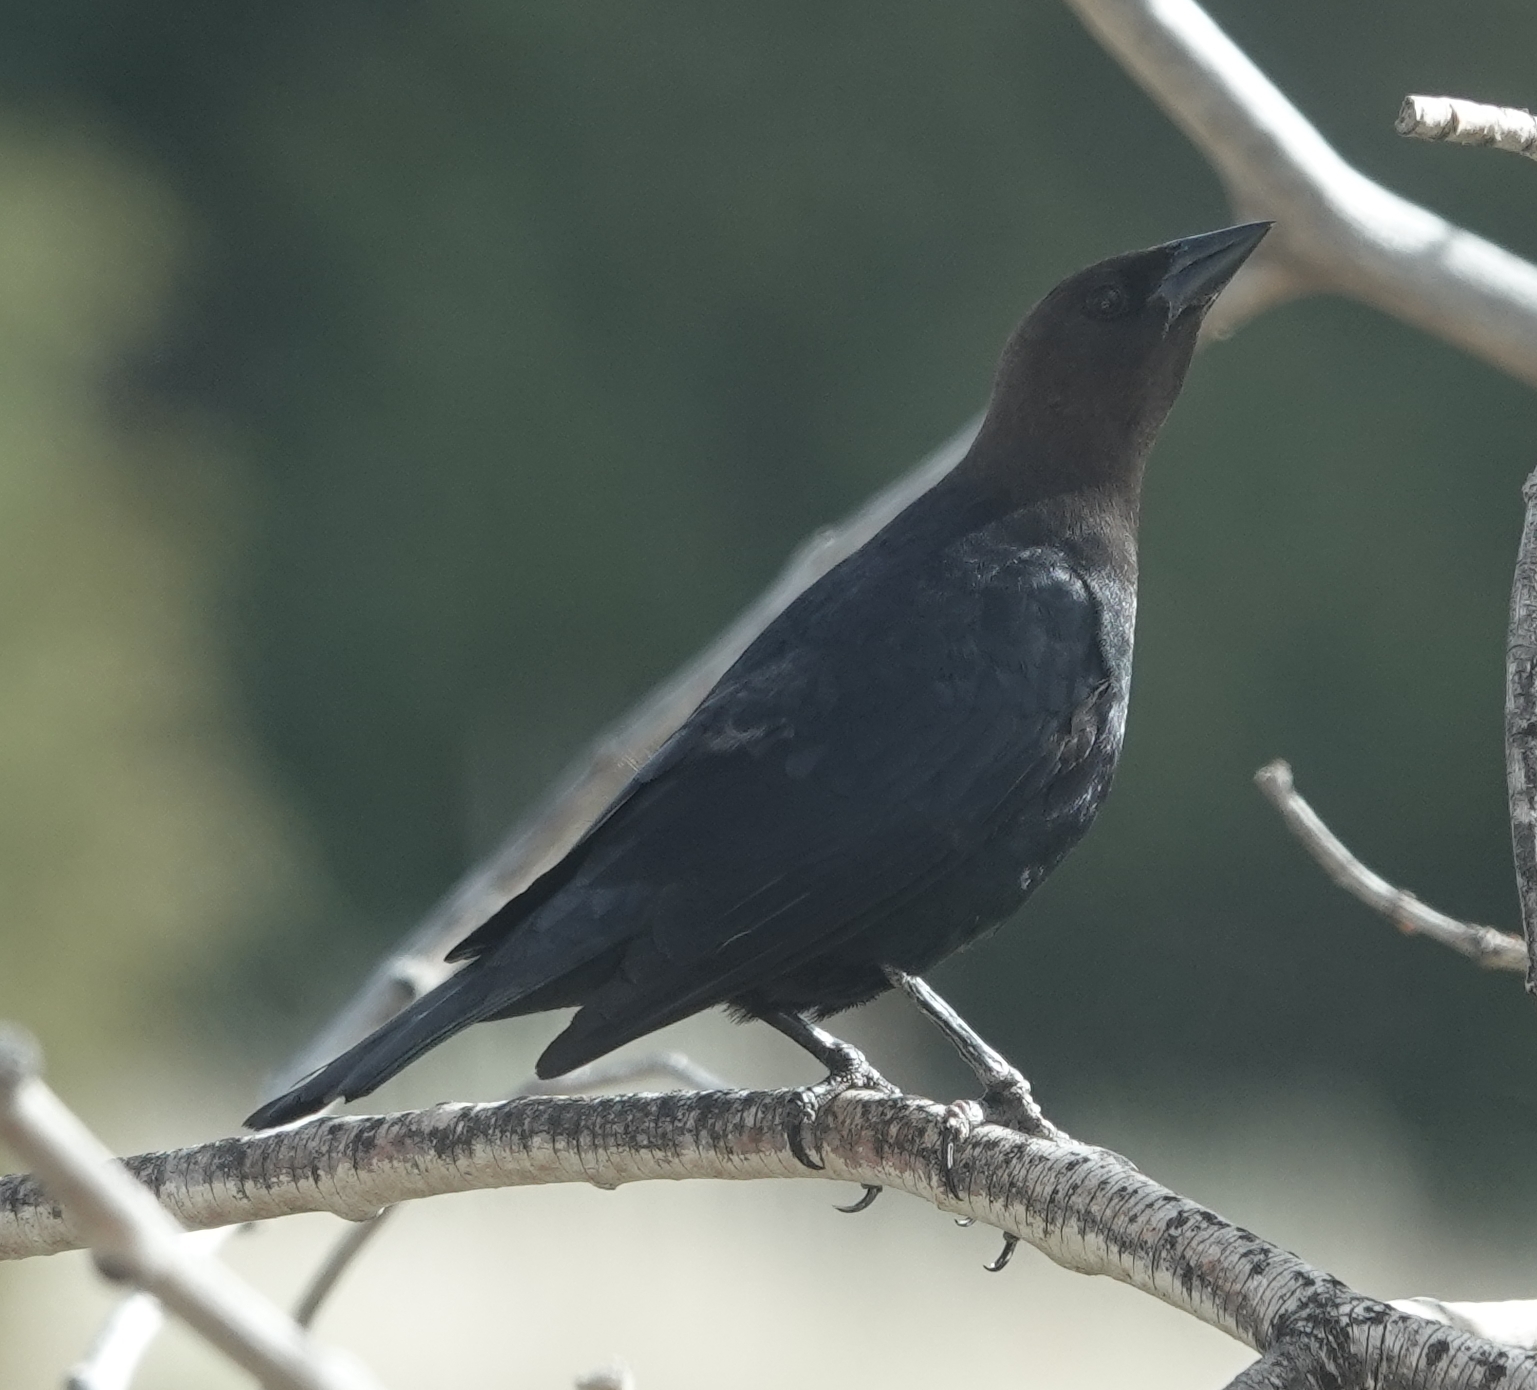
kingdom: Animalia
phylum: Chordata
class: Aves
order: Passeriformes
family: Icteridae
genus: Molothrus
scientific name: Molothrus ater
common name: Brown-headed cowbird
